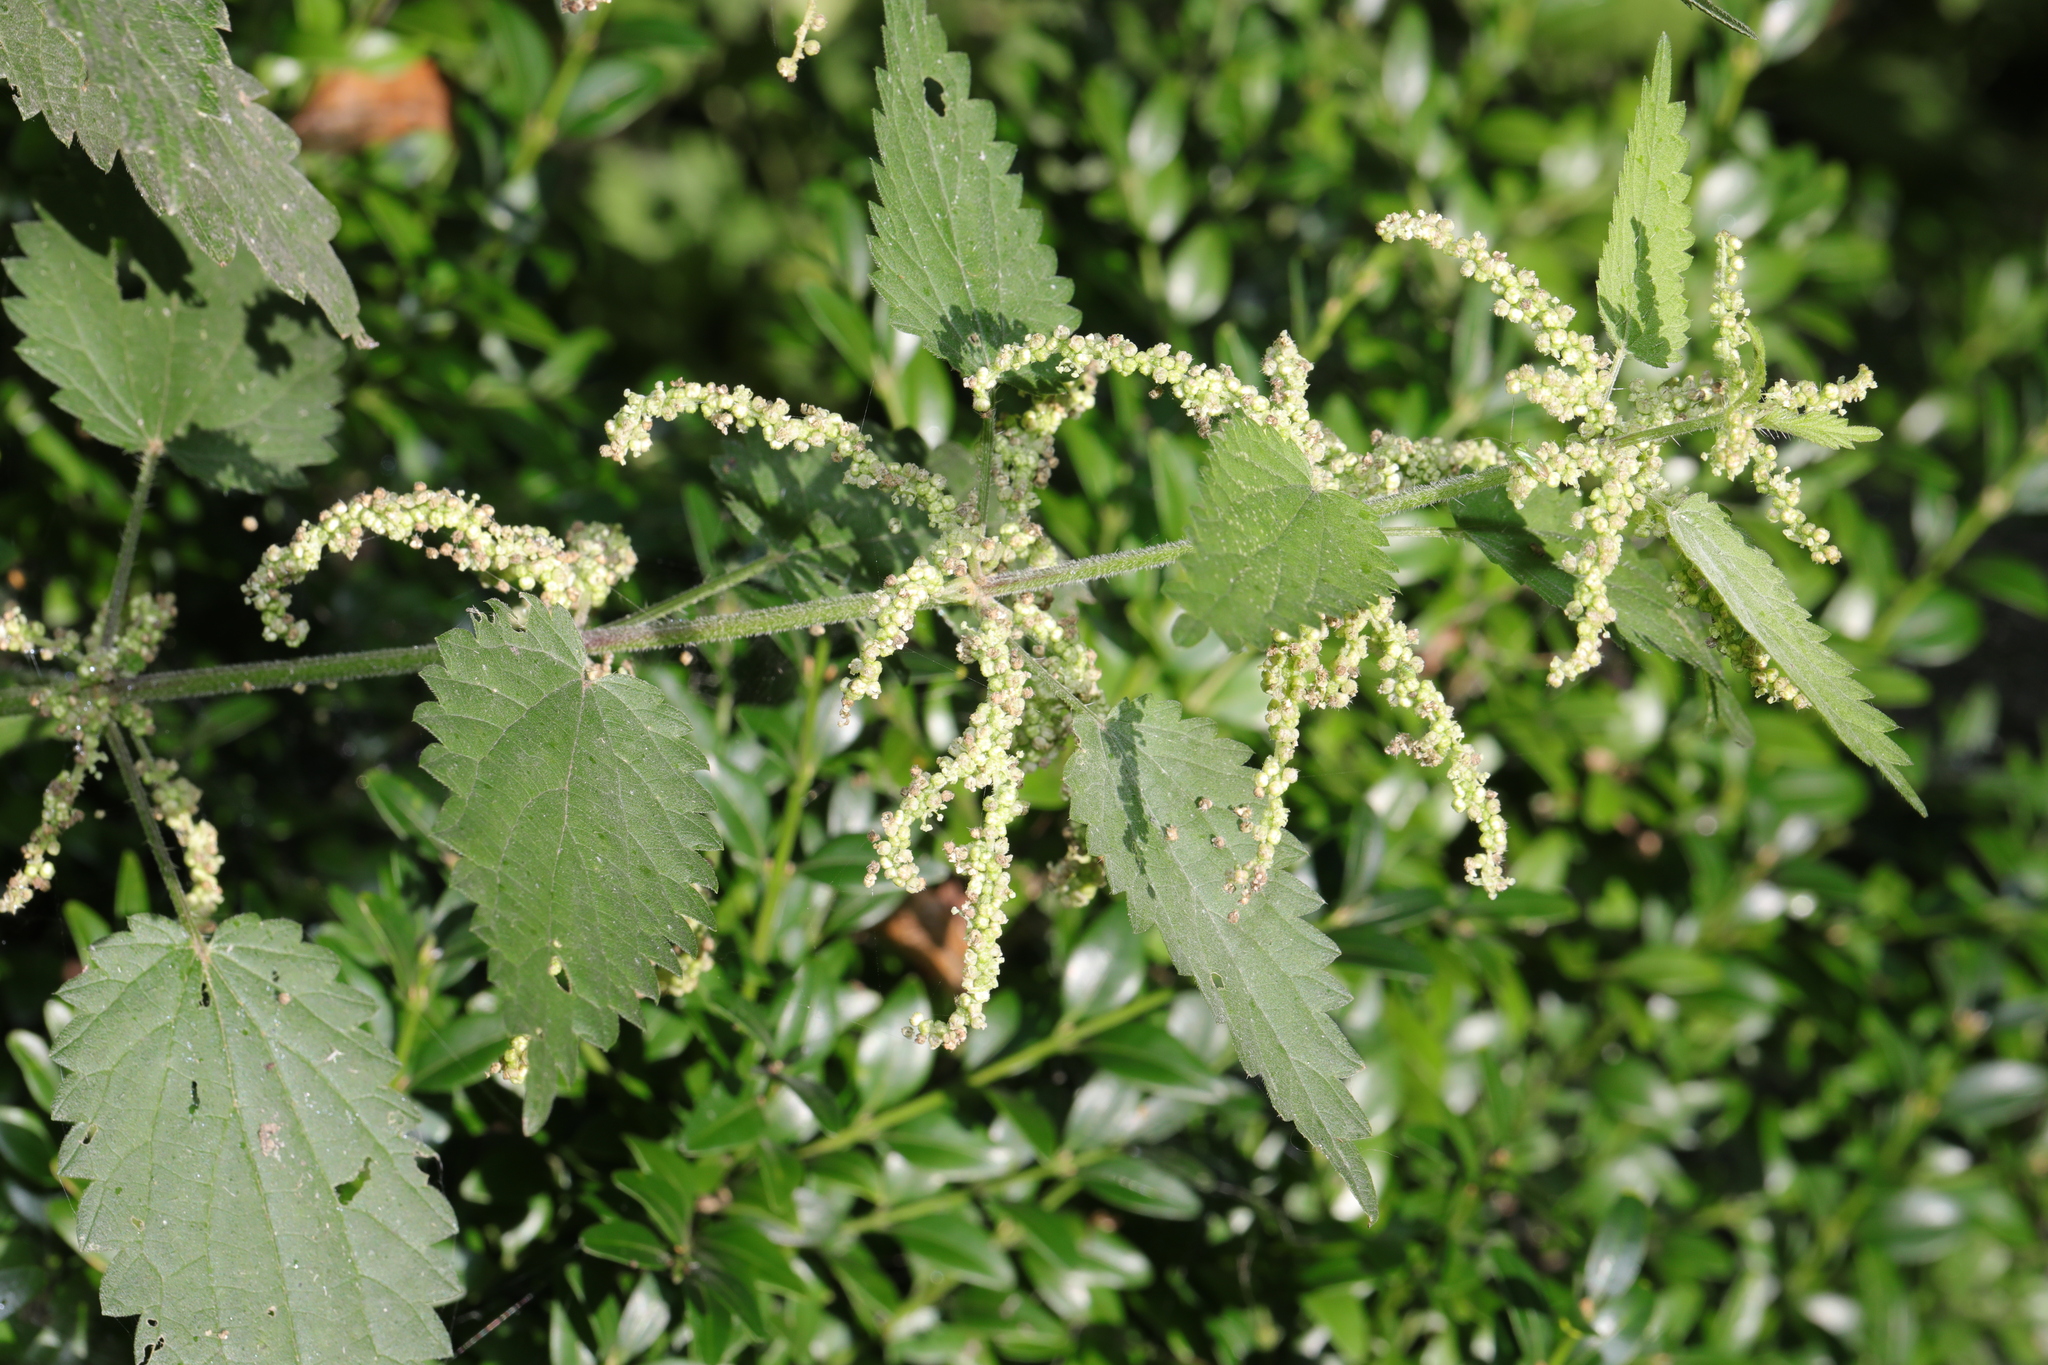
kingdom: Plantae
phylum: Tracheophyta
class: Magnoliopsida
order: Rosales
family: Urticaceae
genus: Urtica
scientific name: Urtica dioica
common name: Common nettle
